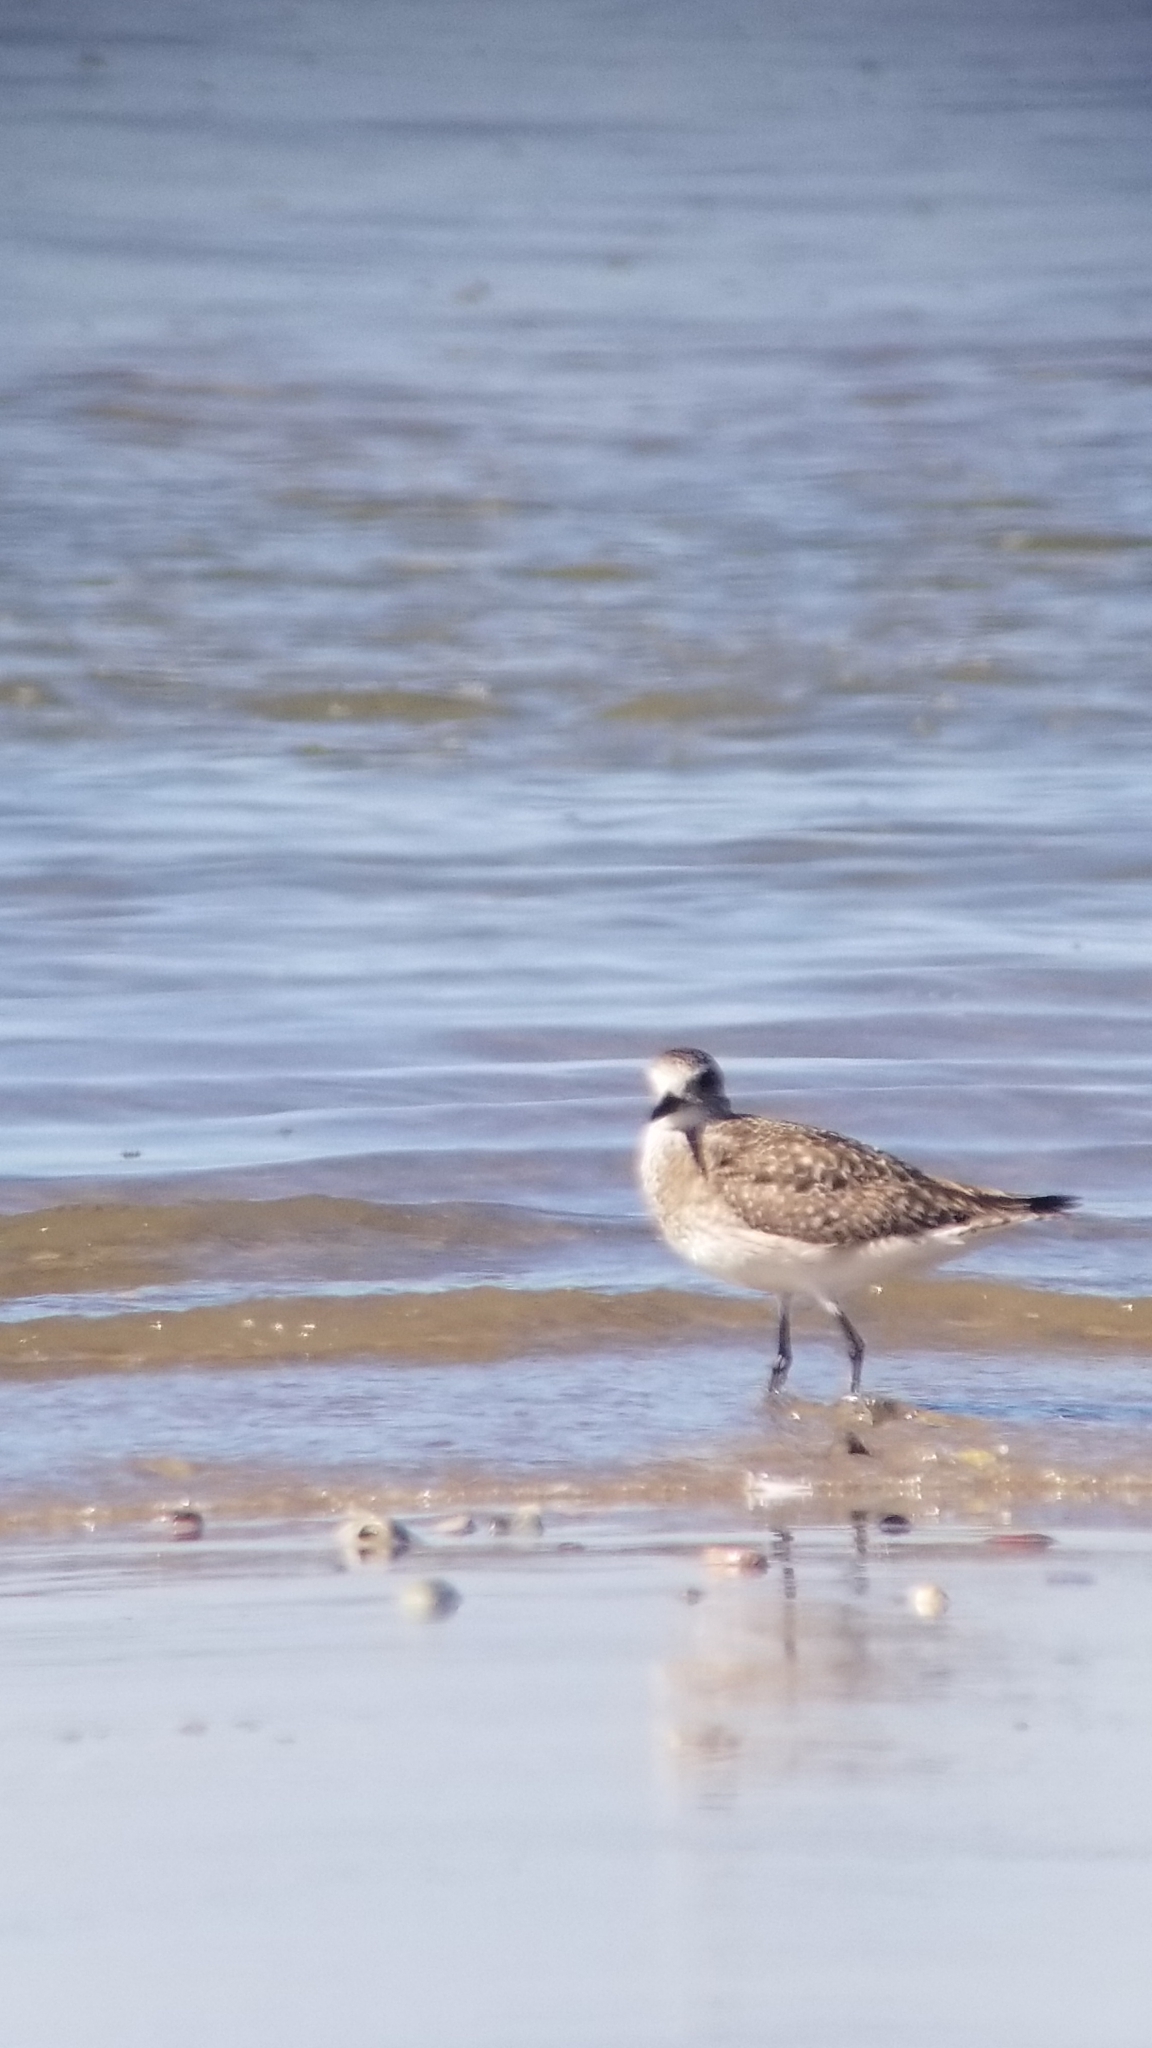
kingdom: Animalia
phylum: Chordata
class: Aves
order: Charadriiformes
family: Charadriidae
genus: Pluvialis
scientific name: Pluvialis squatarola
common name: Grey plover
